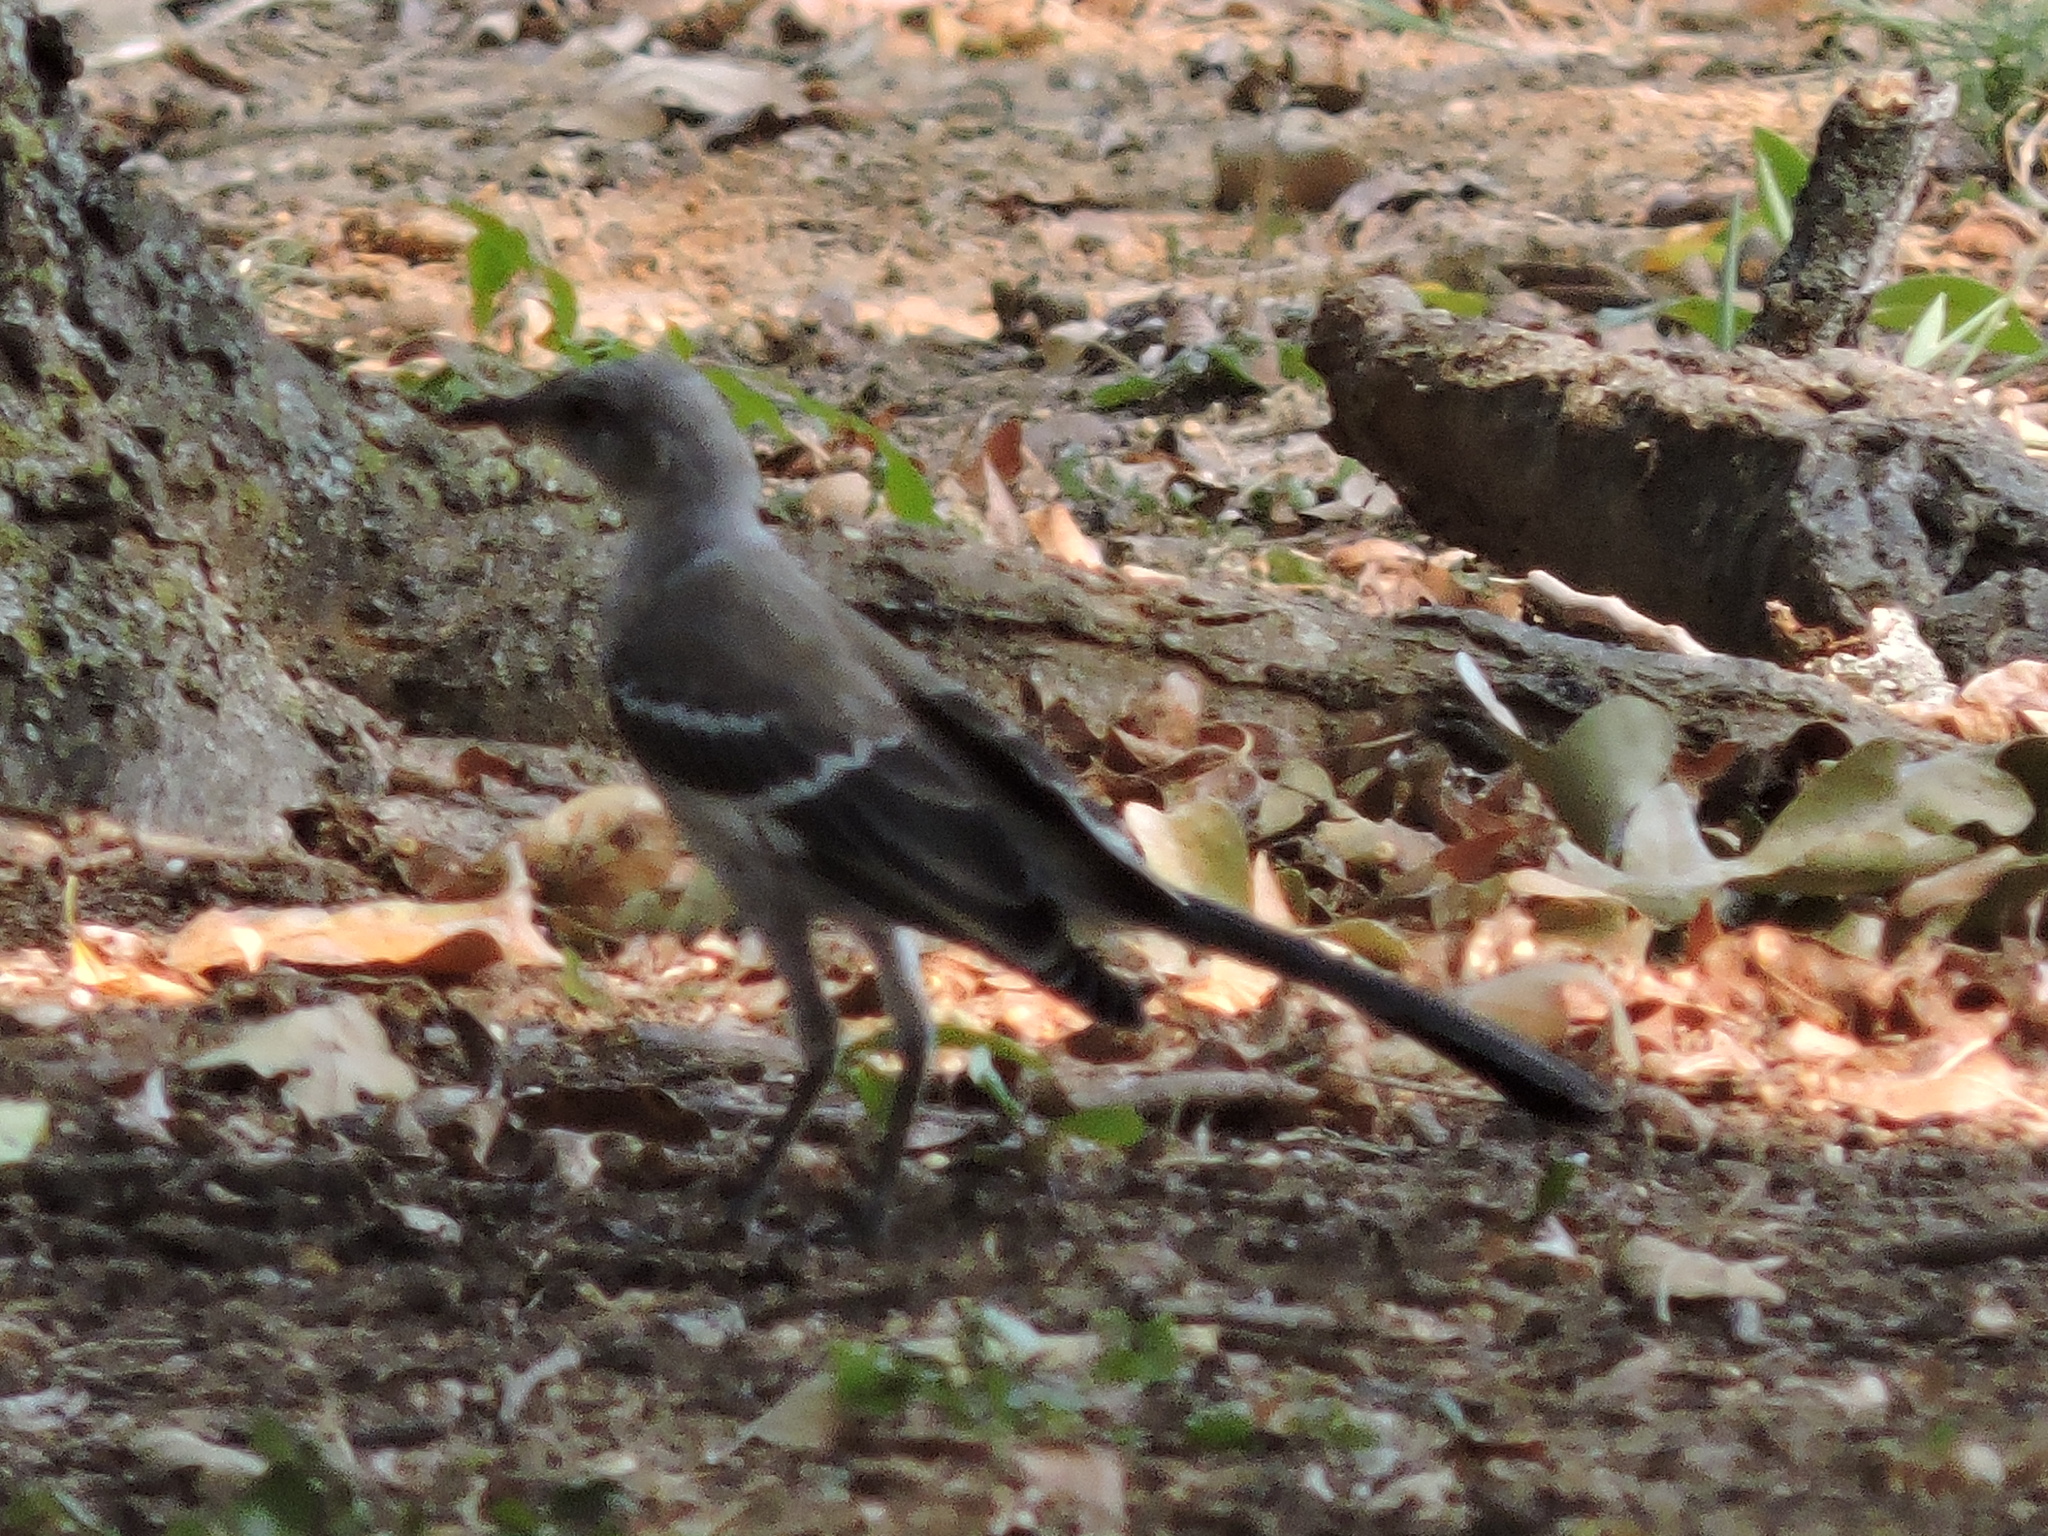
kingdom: Animalia
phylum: Chordata
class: Aves
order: Passeriformes
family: Mimidae
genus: Mimus
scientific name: Mimus polyglottos
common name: Northern mockingbird
